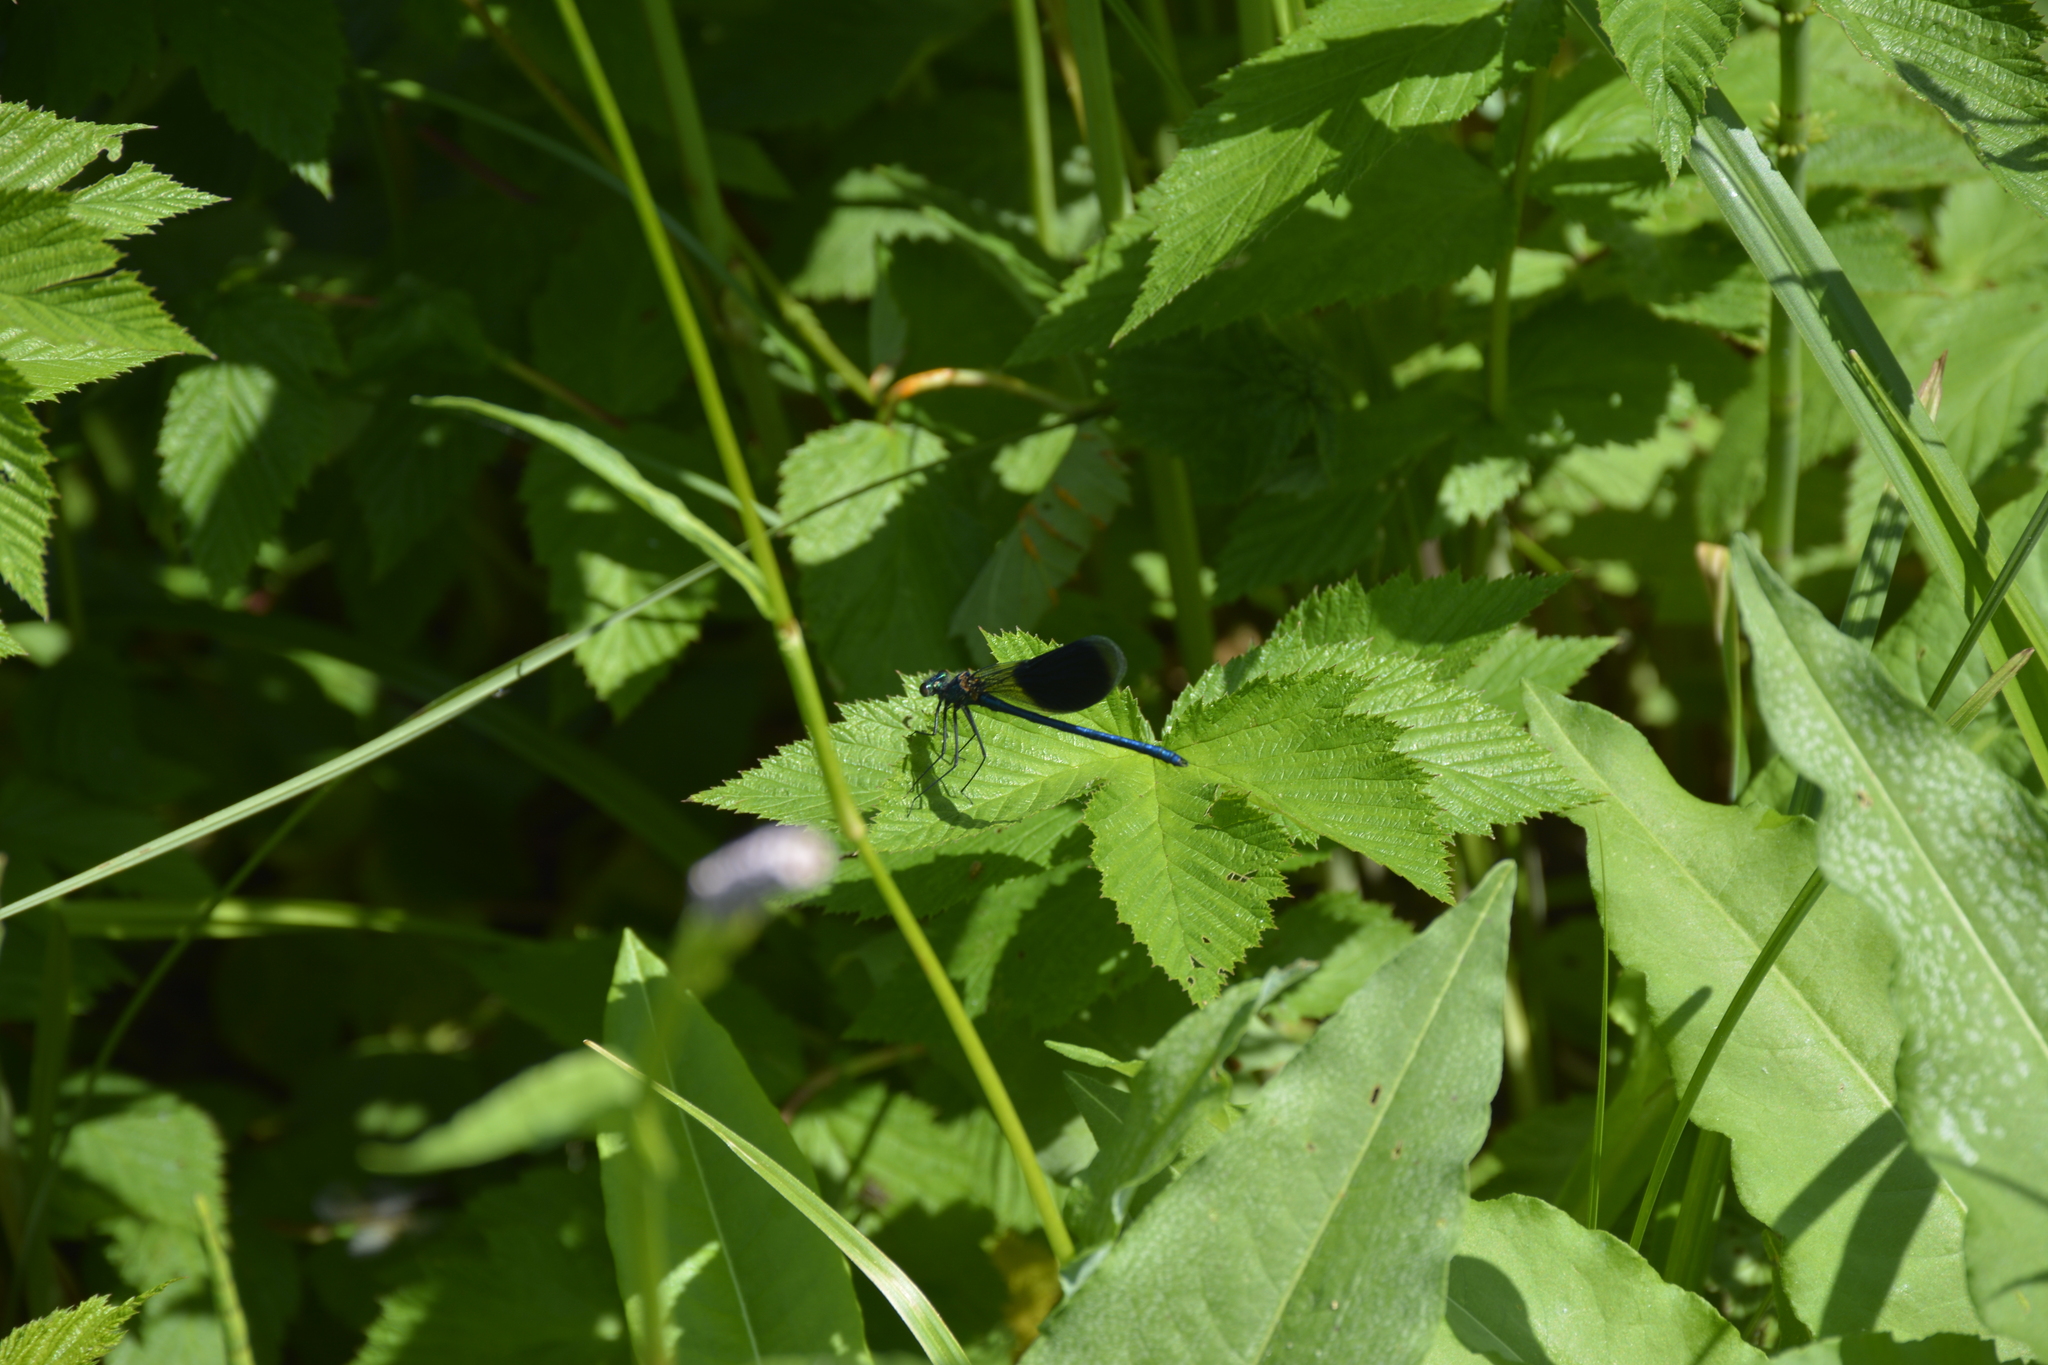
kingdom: Animalia
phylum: Arthropoda
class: Insecta
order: Odonata
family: Calopterygidae
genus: Calopteryx
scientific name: Calopteryx splendens
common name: Banded demoiselle
